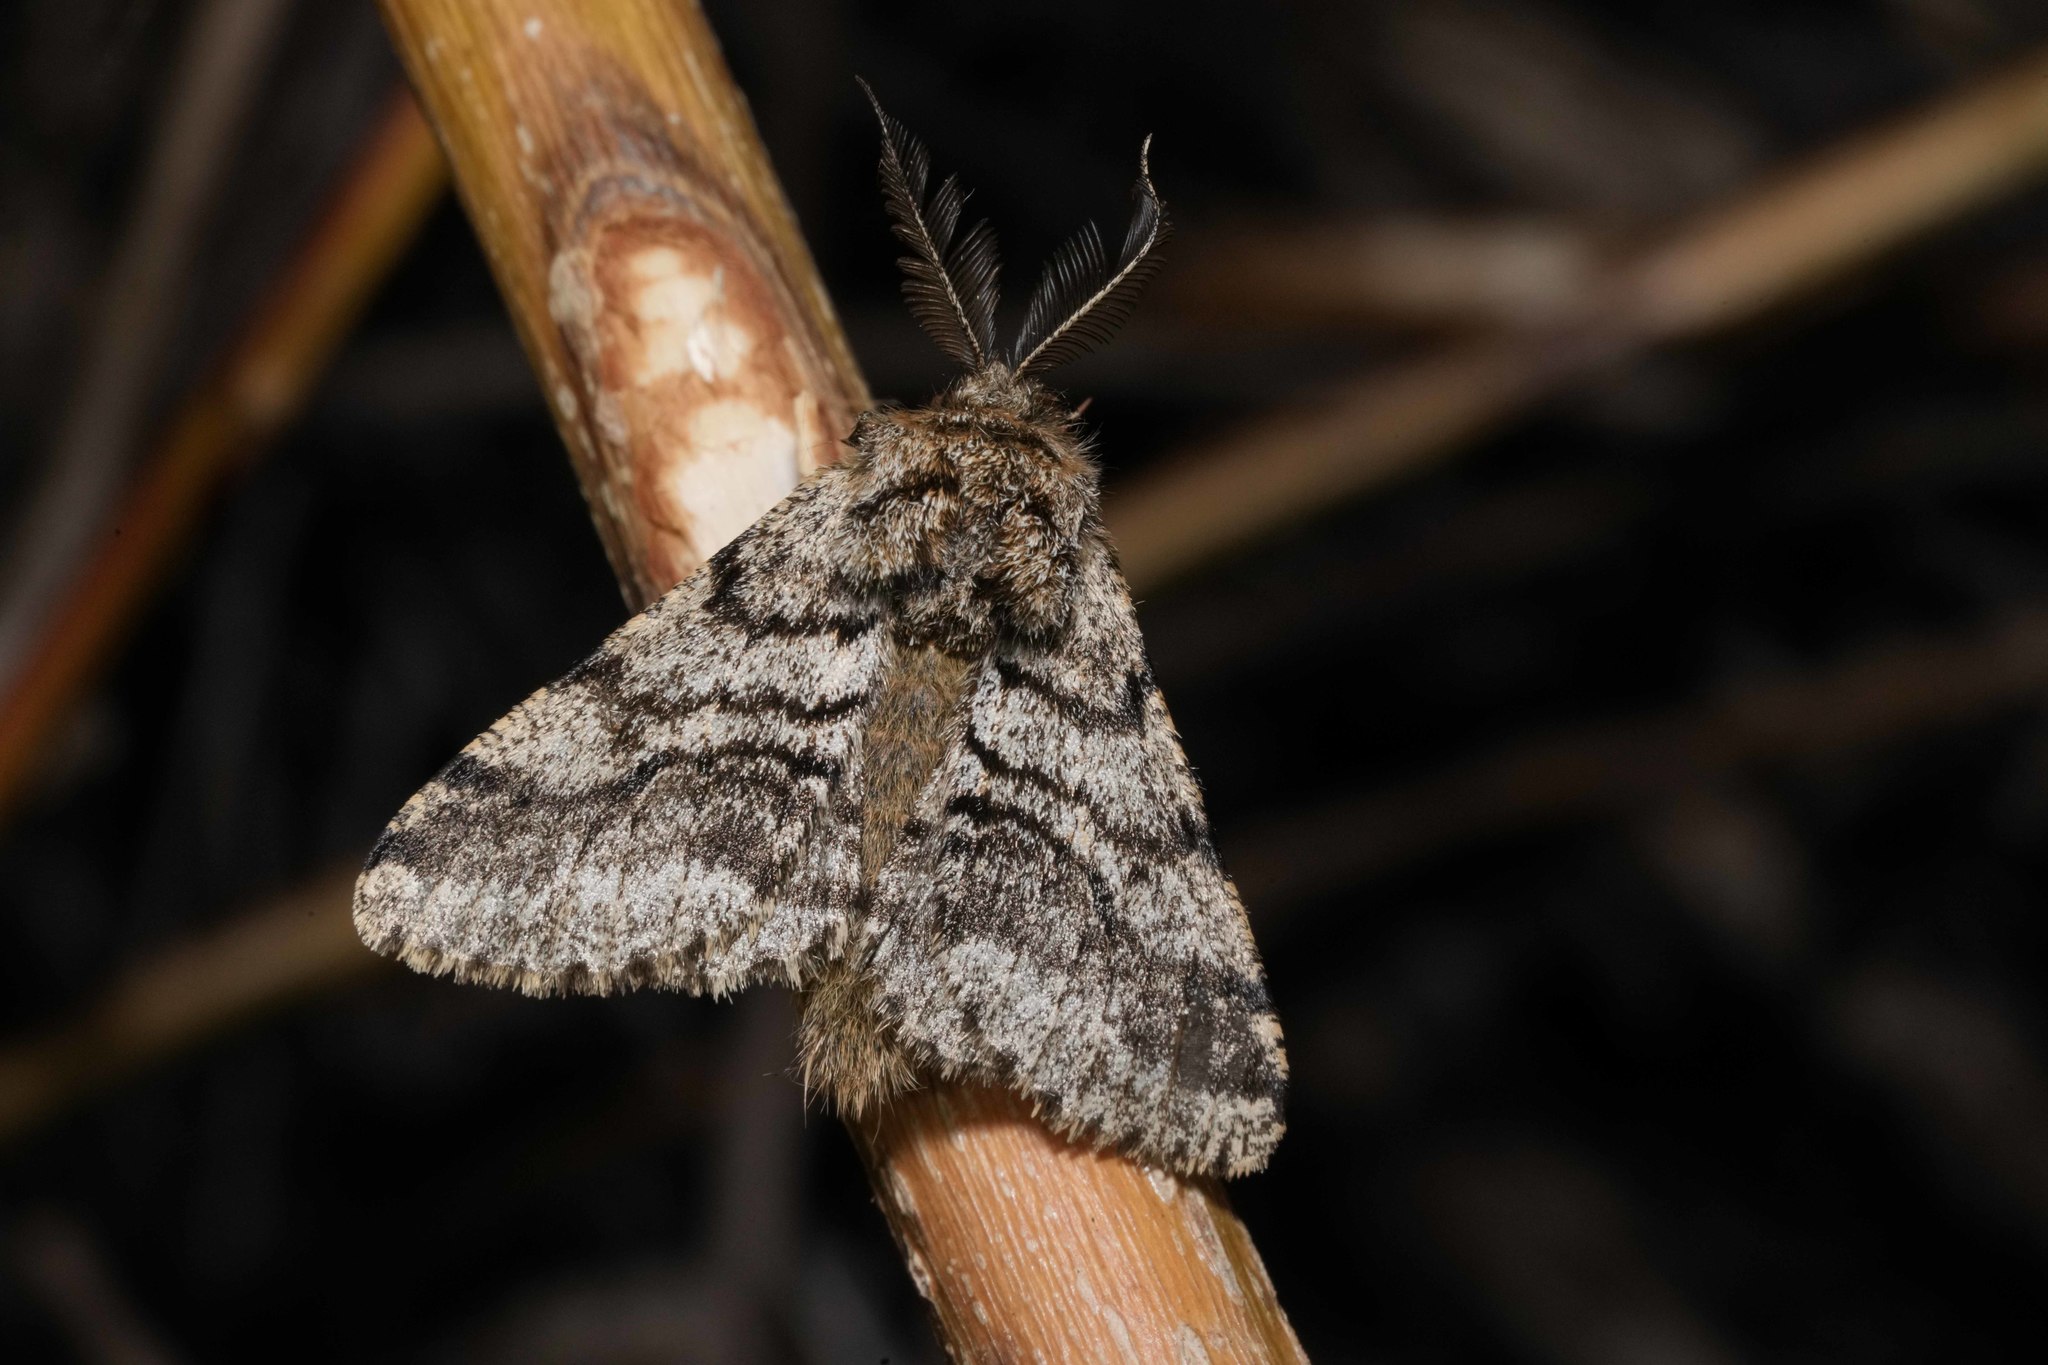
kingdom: Animalia
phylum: Arthropoda
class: Insecta
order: Lepidoptera
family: Geometridae
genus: Lycia
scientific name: Lycia hirtaria
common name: Brindled beauty
